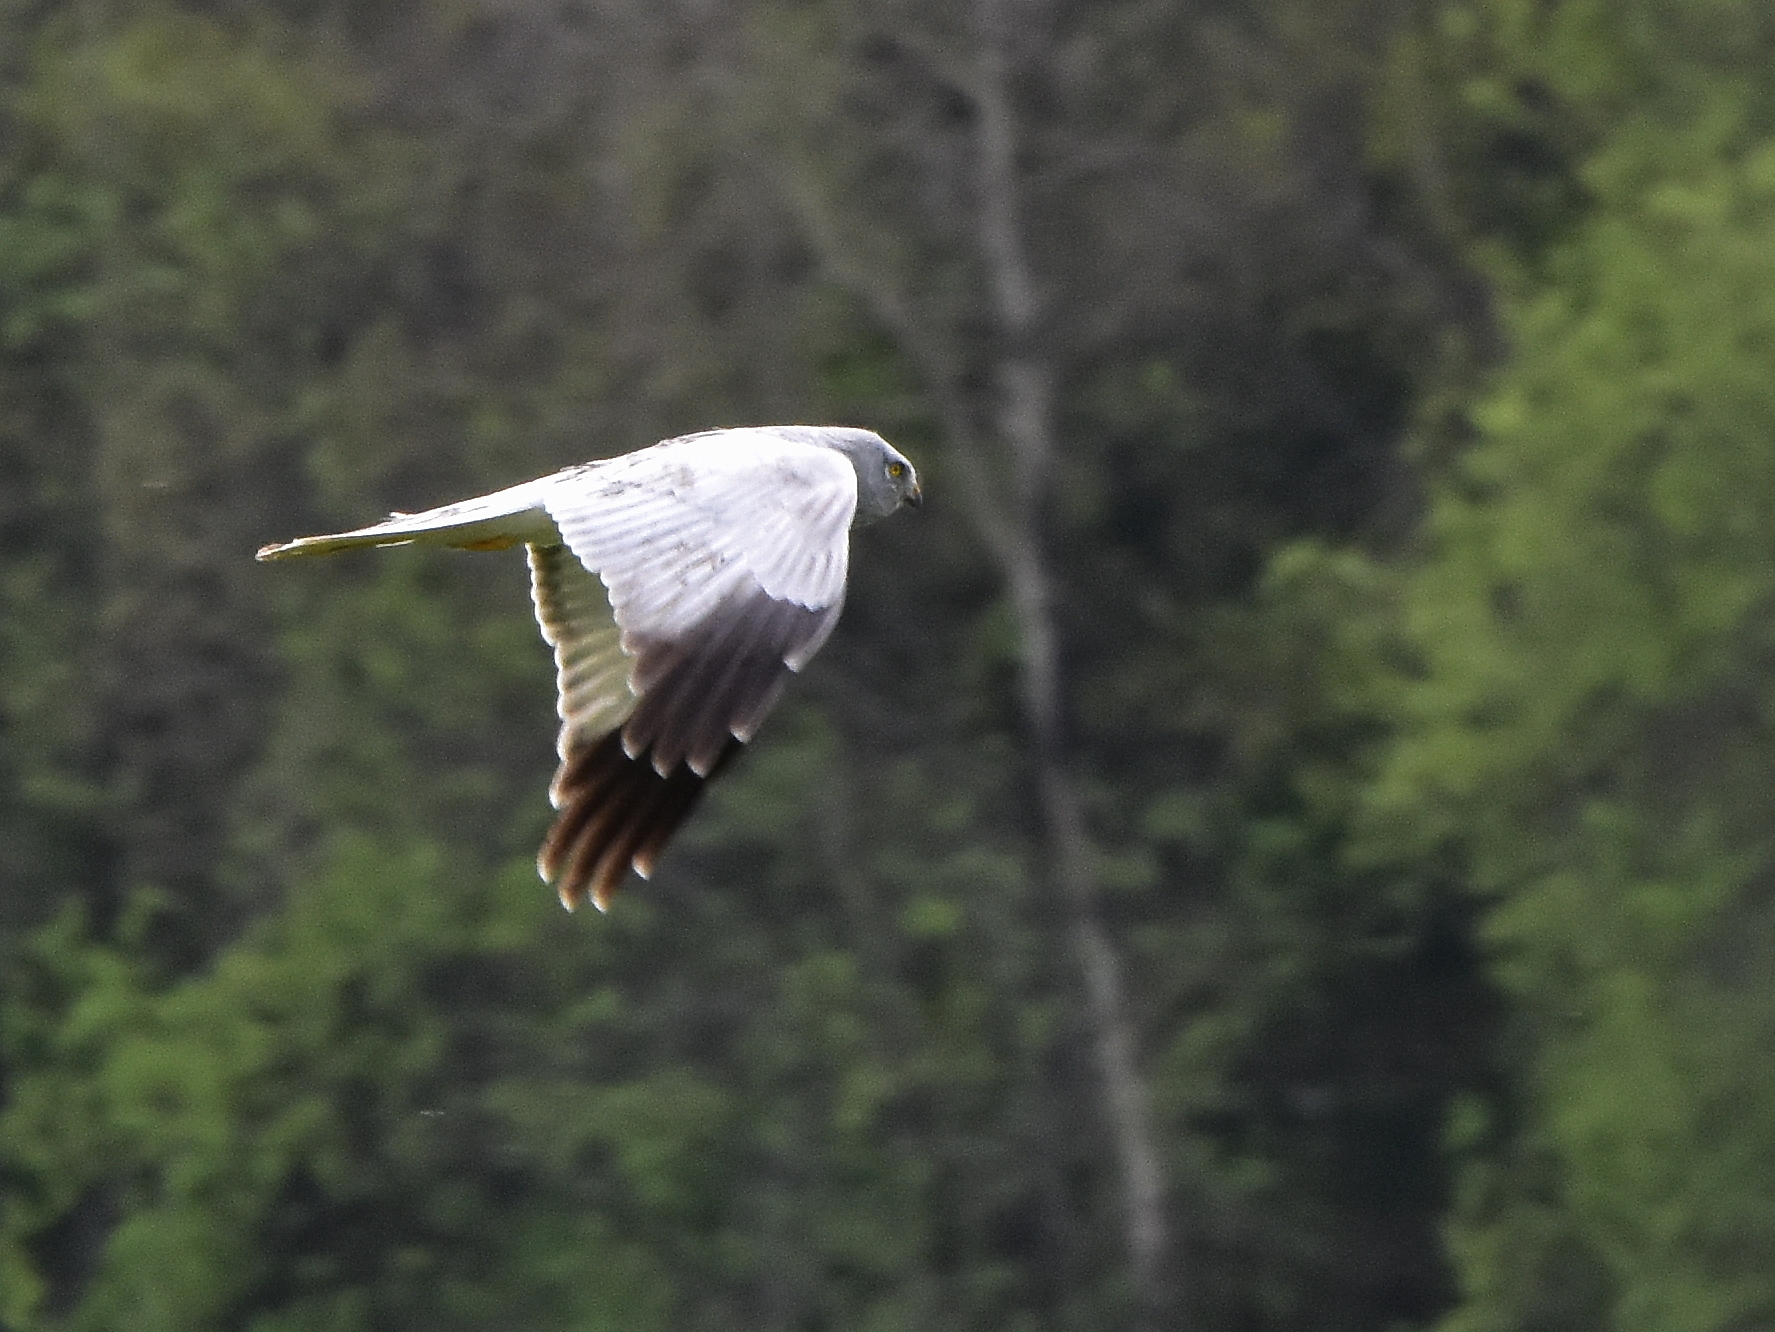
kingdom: Animalia
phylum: Chordata
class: Aves
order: Accipitriformes
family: Accipitridae
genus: Circus
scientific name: Circus cyaneus
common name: Hen harrier
